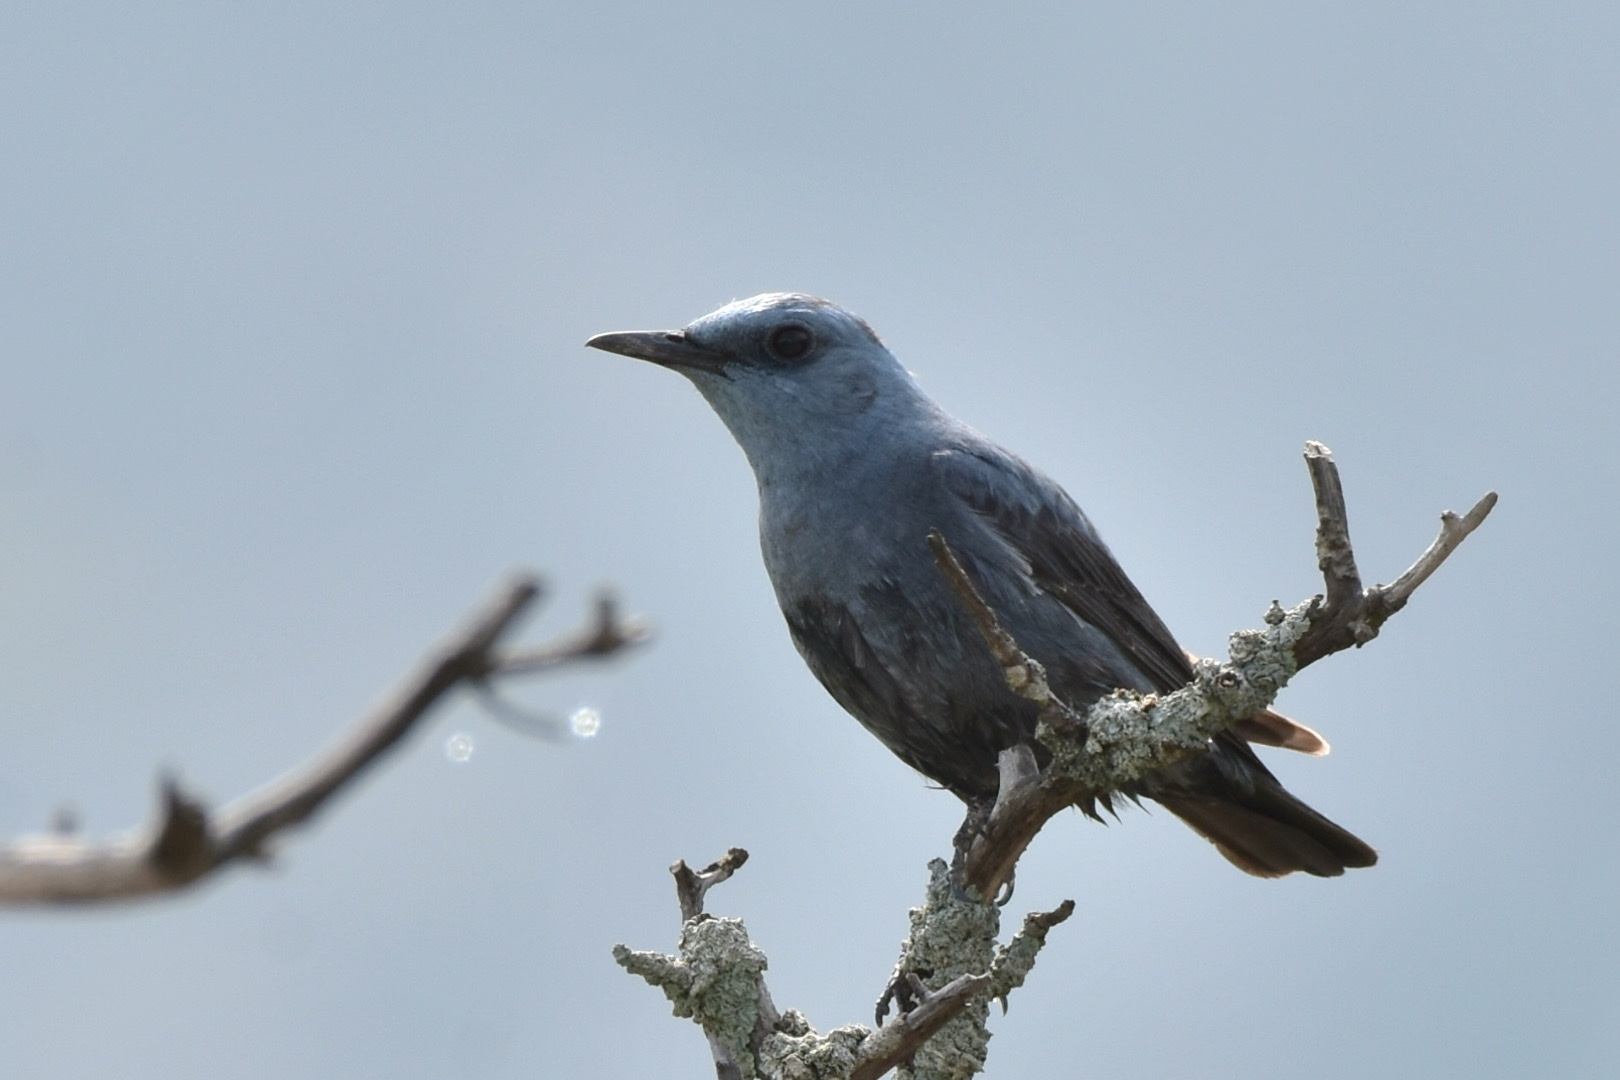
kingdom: Animalia
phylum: Chordata
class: Aves
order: Passeriformes
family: Muscicapidae
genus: Monticola
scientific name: Monticola solitarius
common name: Blue rock thrush
